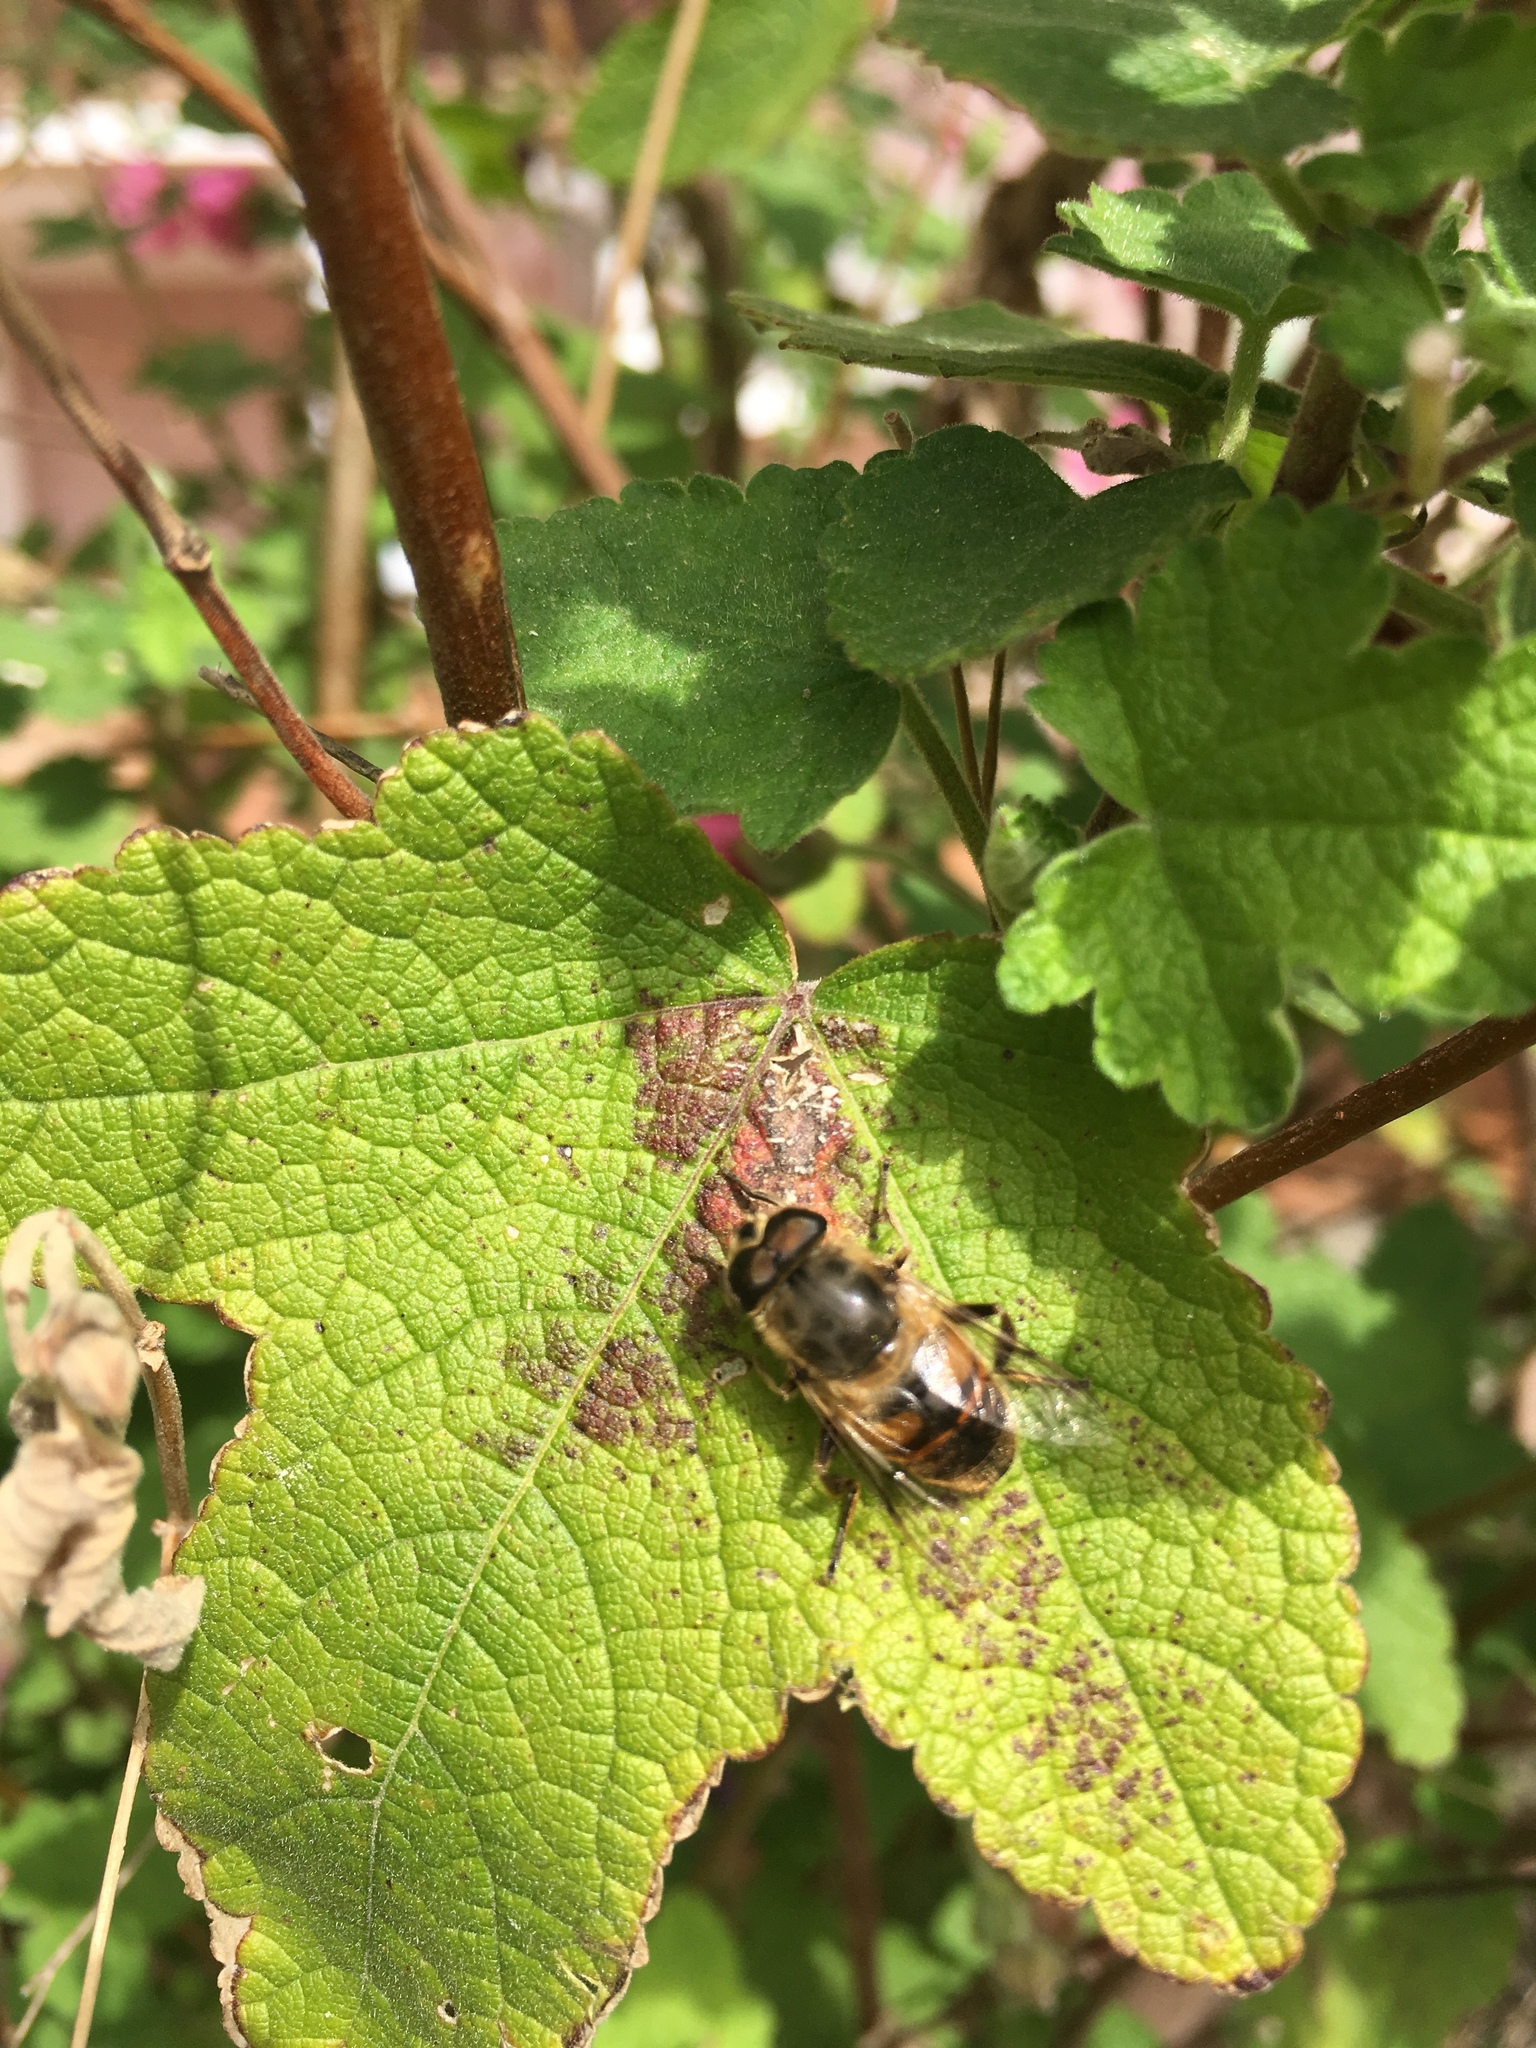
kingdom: Animalia
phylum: Arthropoda
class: Insecta
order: Diptera
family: Syrphidae
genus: Eristalis
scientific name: Eristalis tenax
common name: Drone fly
